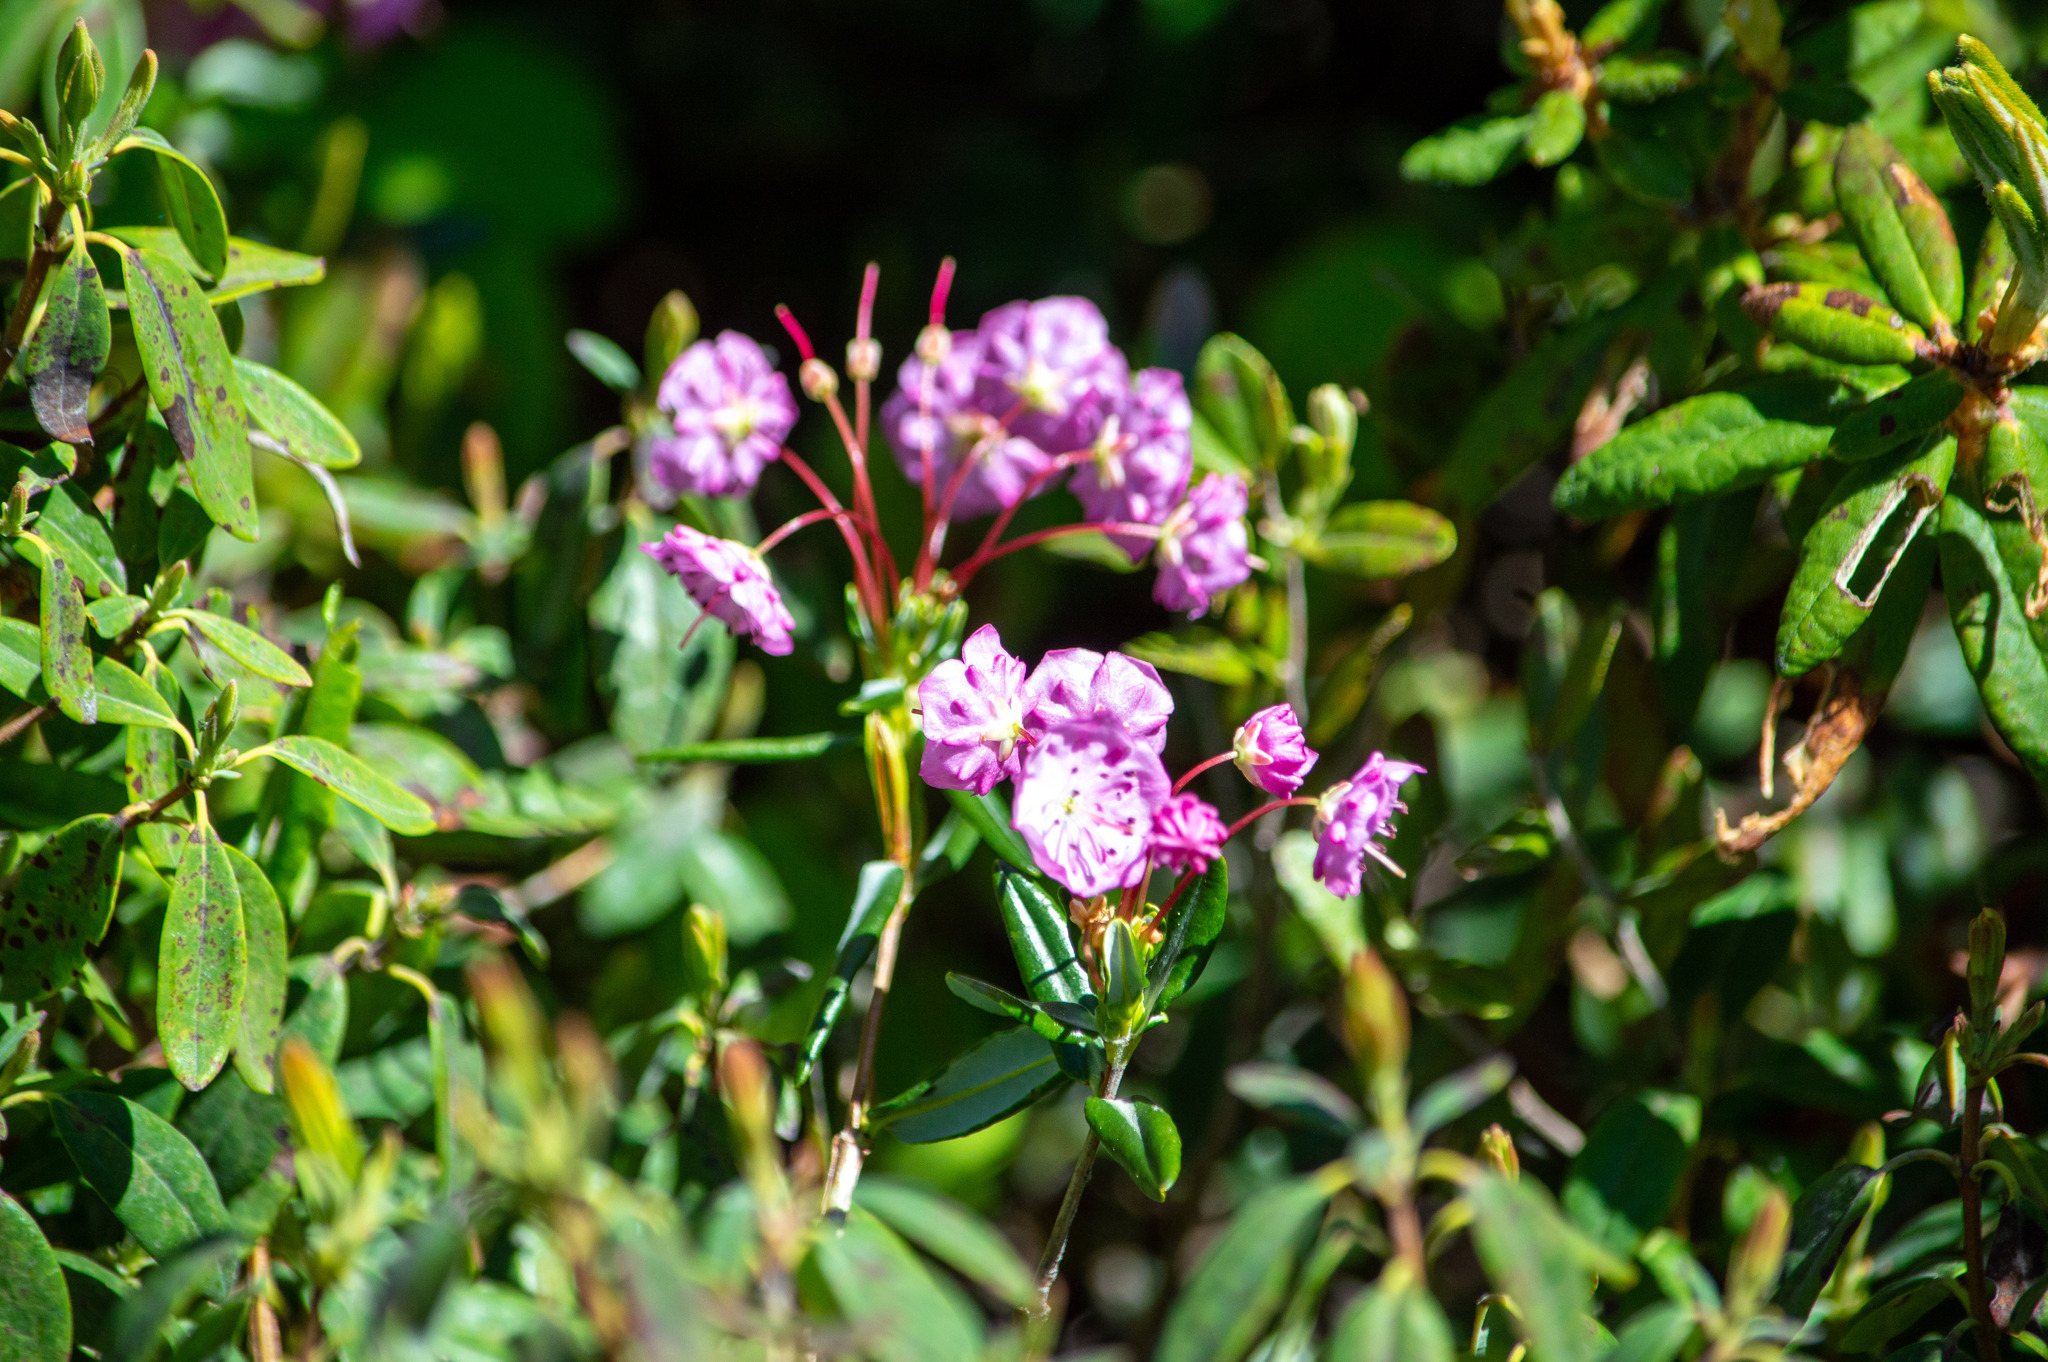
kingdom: Plantae
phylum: Tracheophyta
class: Magnoliopsida
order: Ericales
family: Ericaceae
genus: Kalmia
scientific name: Kalmia polifolia
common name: Bog-laurel
